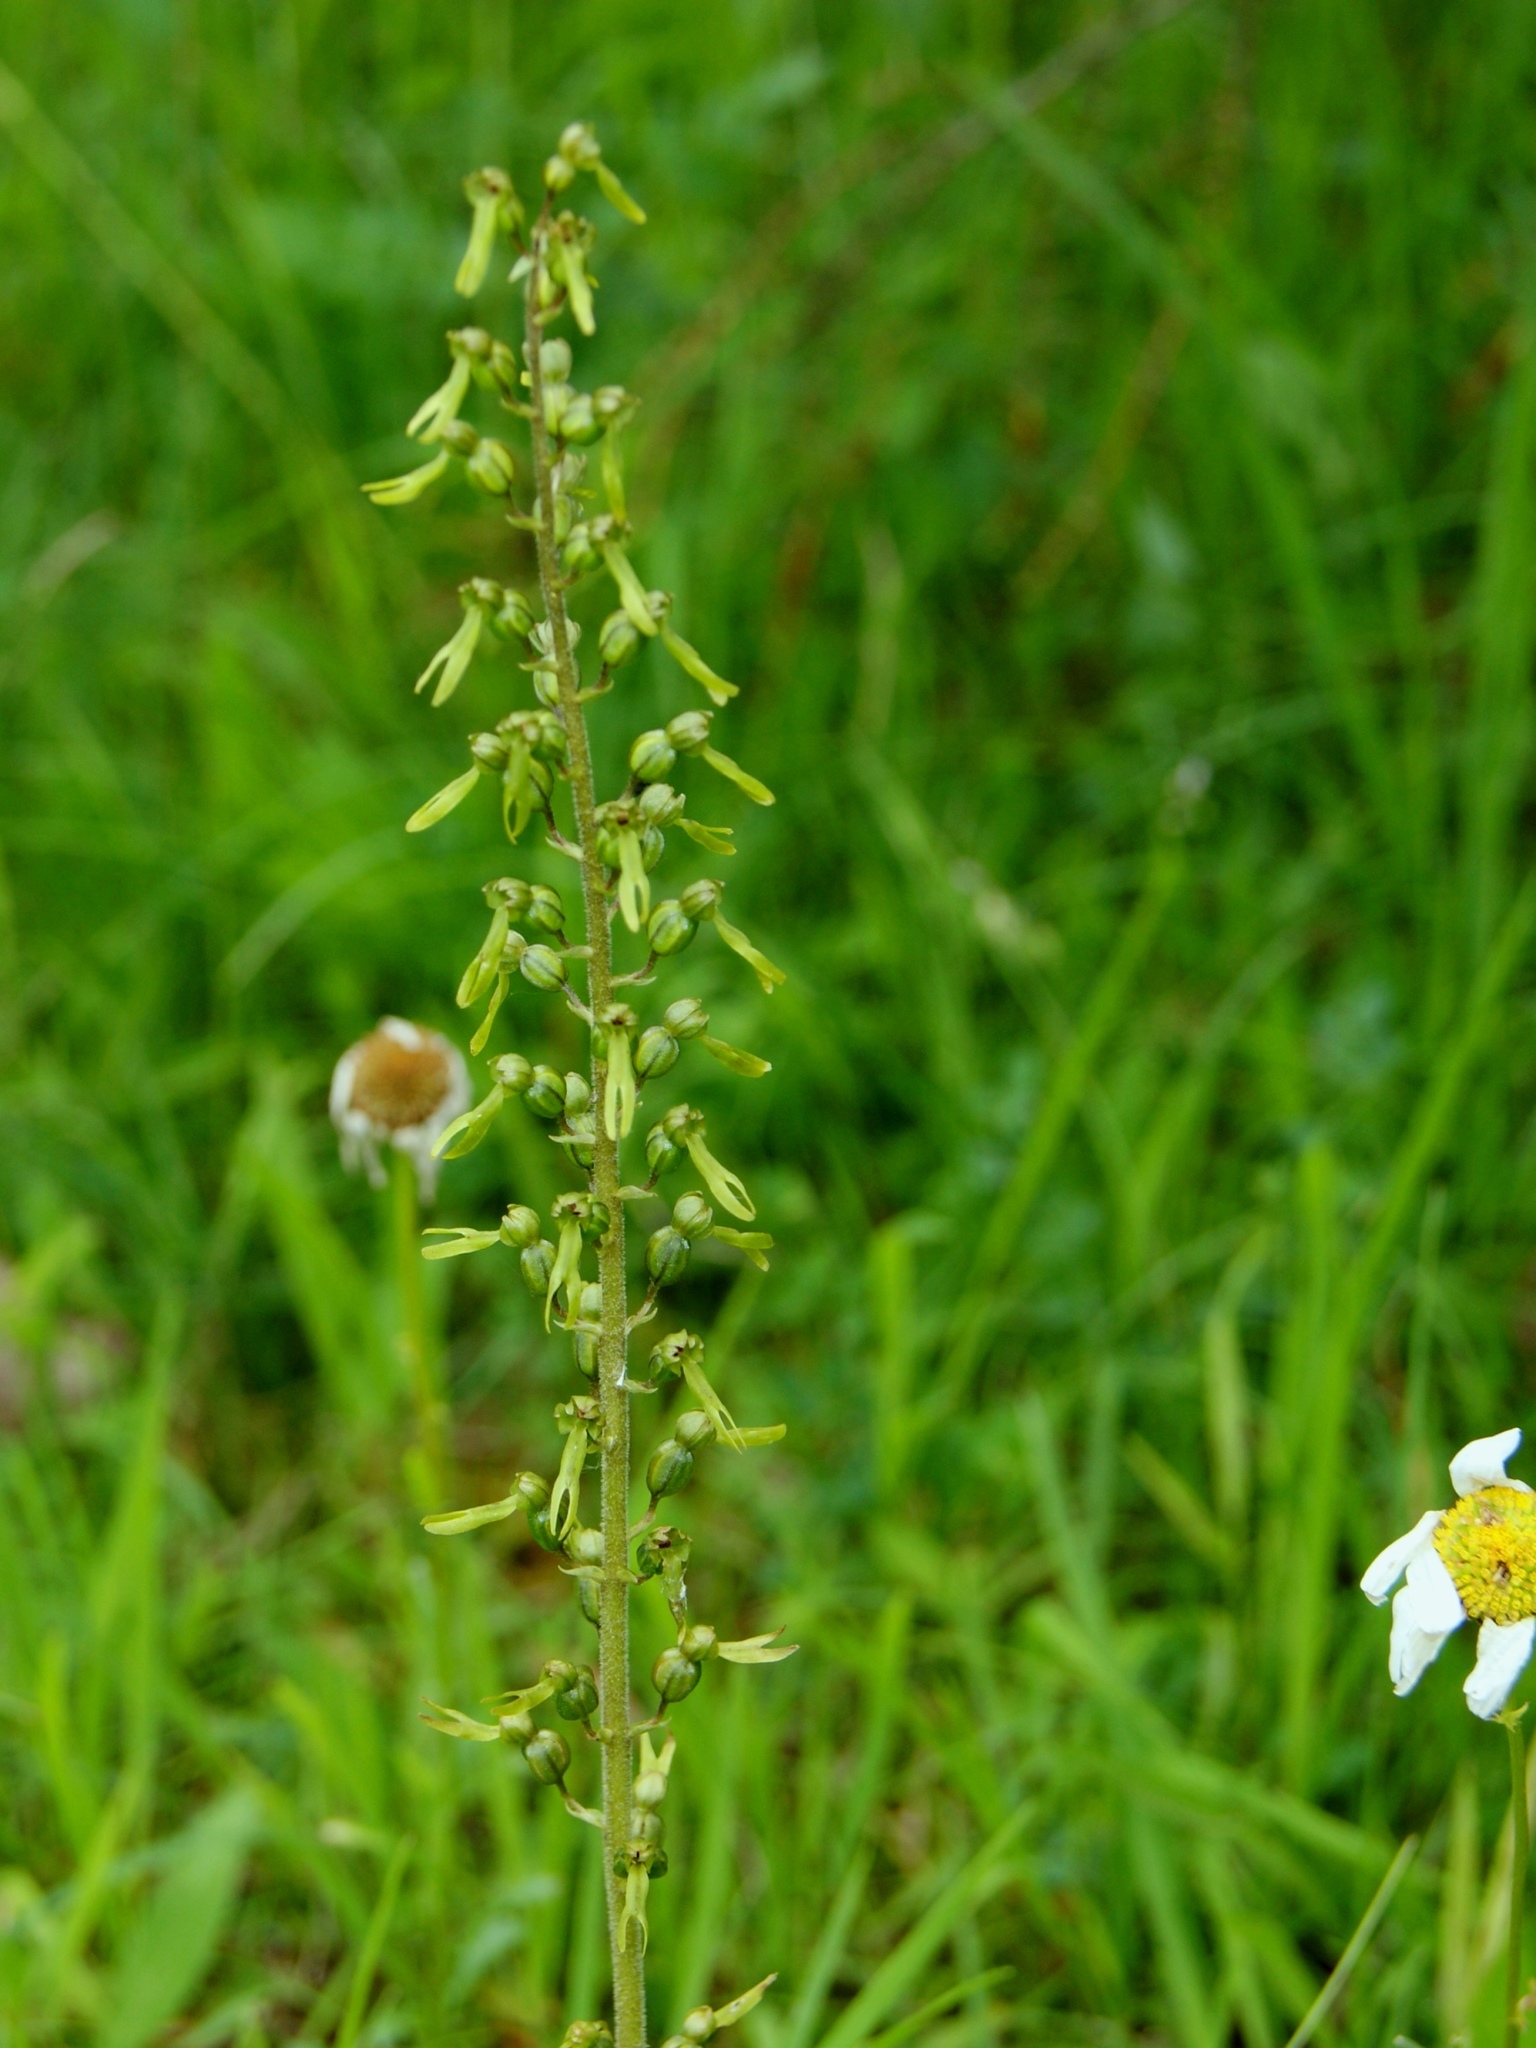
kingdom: Plantae
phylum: Tracheophyta
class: Liliopsida
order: Asparagales
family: Orchidaceae
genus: Neottia
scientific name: Neottia ovata
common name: Common twayblade
